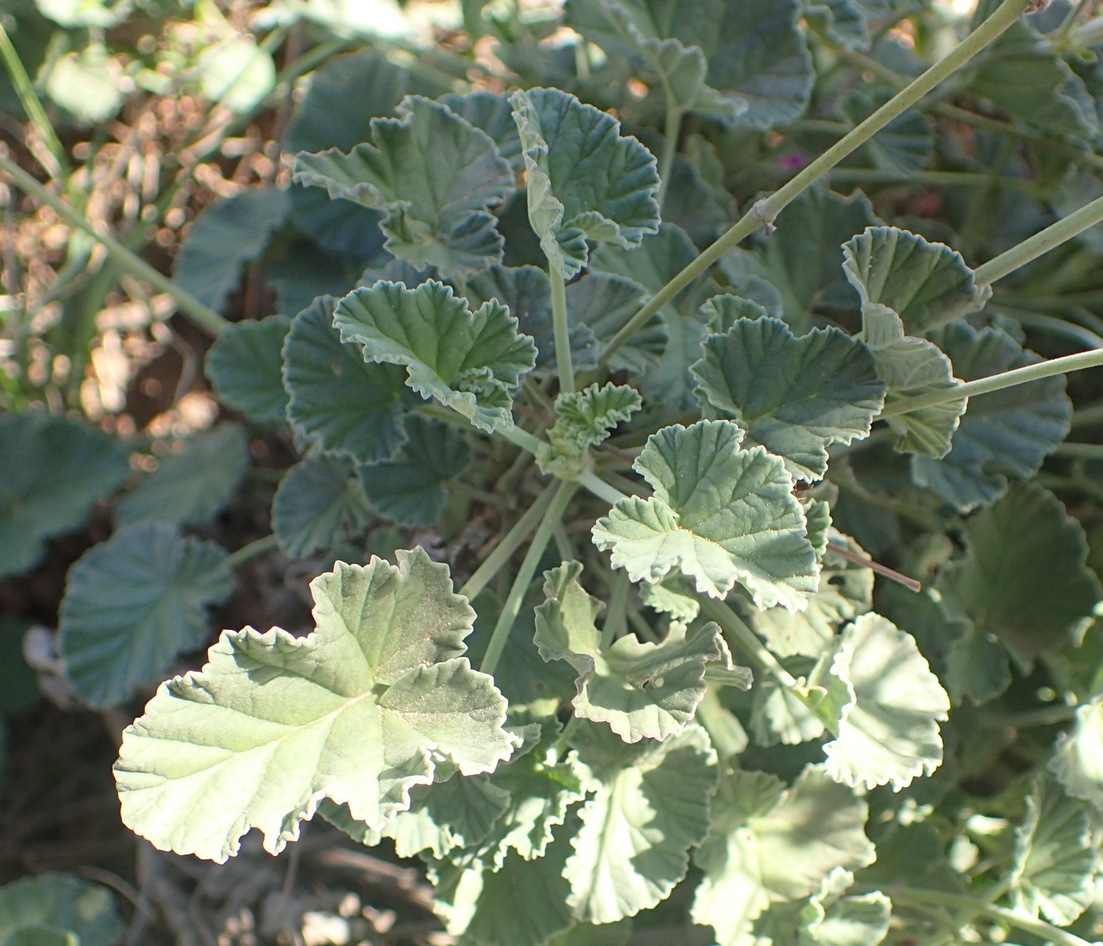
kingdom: Plantae
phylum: Tracheophyta
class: Magnoliopsida
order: Geraniales
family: Geraniaceae
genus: Pelargonium
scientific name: Pelargonium reniforme
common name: Kidney-leaf pelargonium
